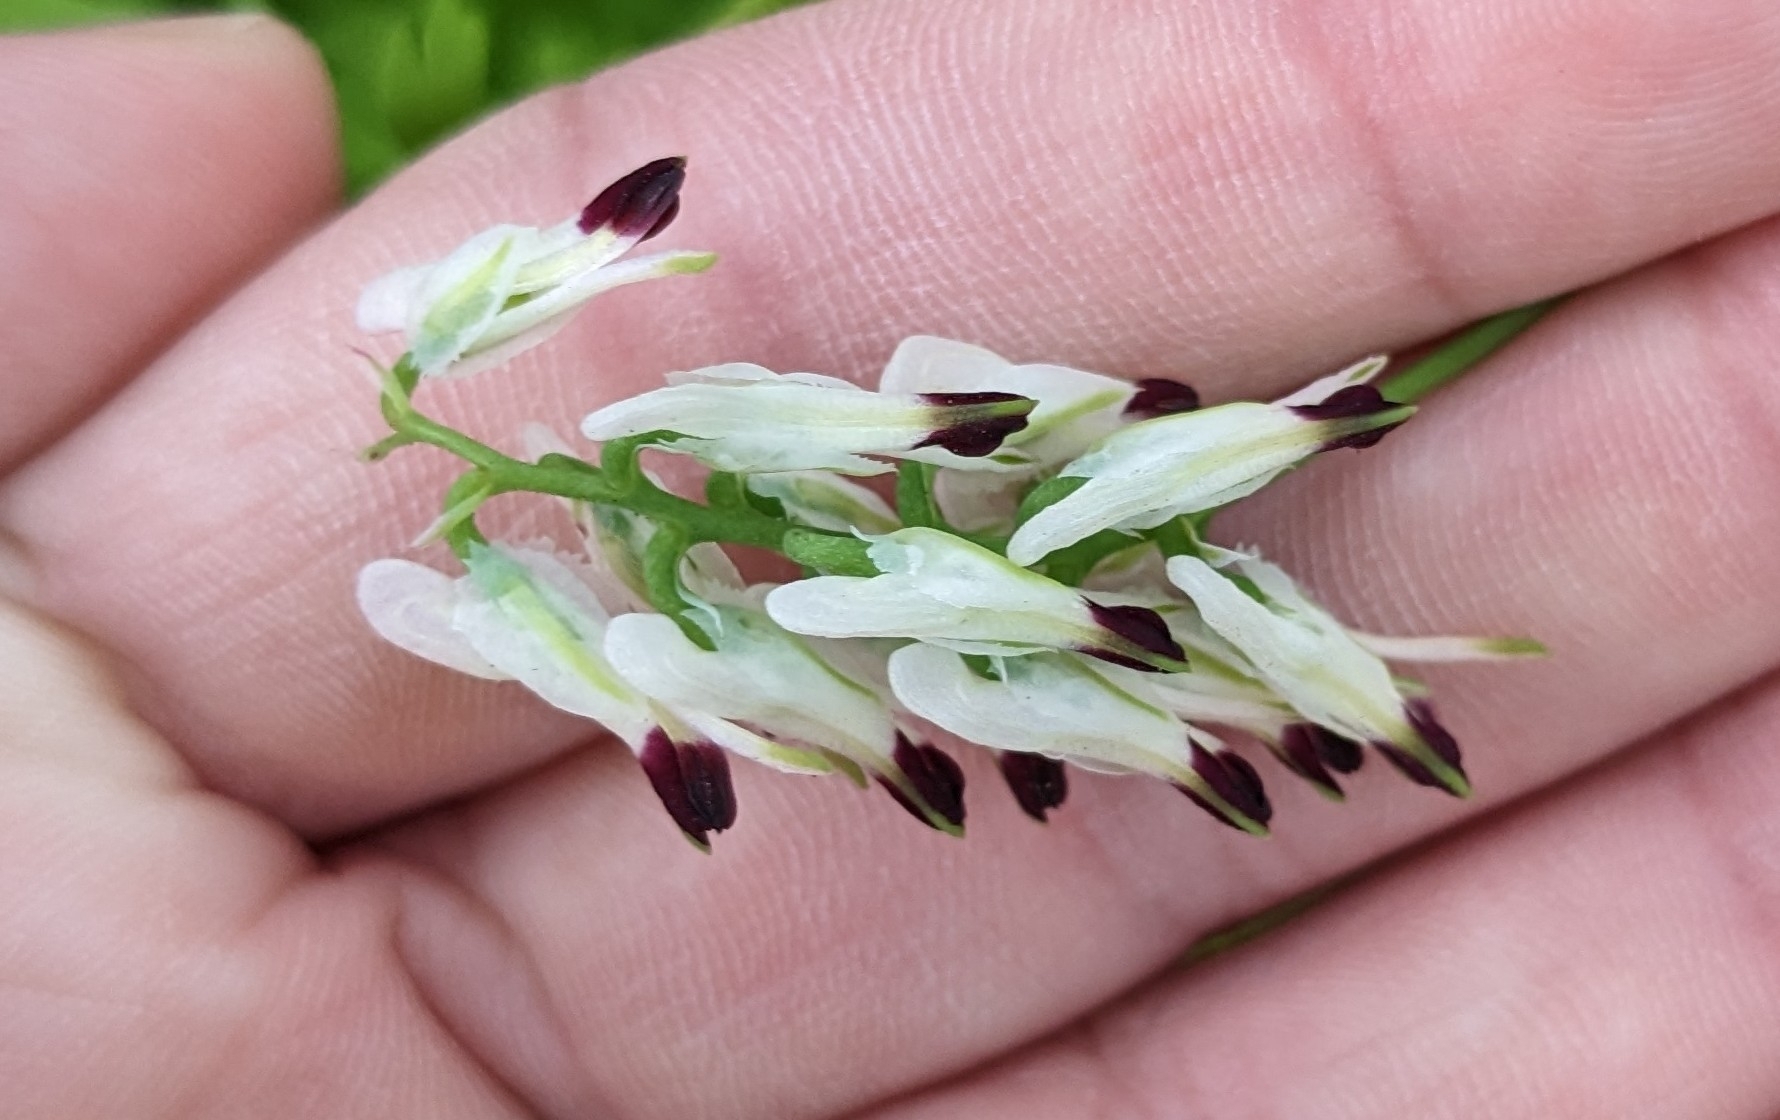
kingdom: Plantae
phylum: Tracheophyta
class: Magnoliopsida
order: Ranunculales
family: Papaveraceae
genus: Fumaria
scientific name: Fumaria capreolata
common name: White ramping-fumitory
